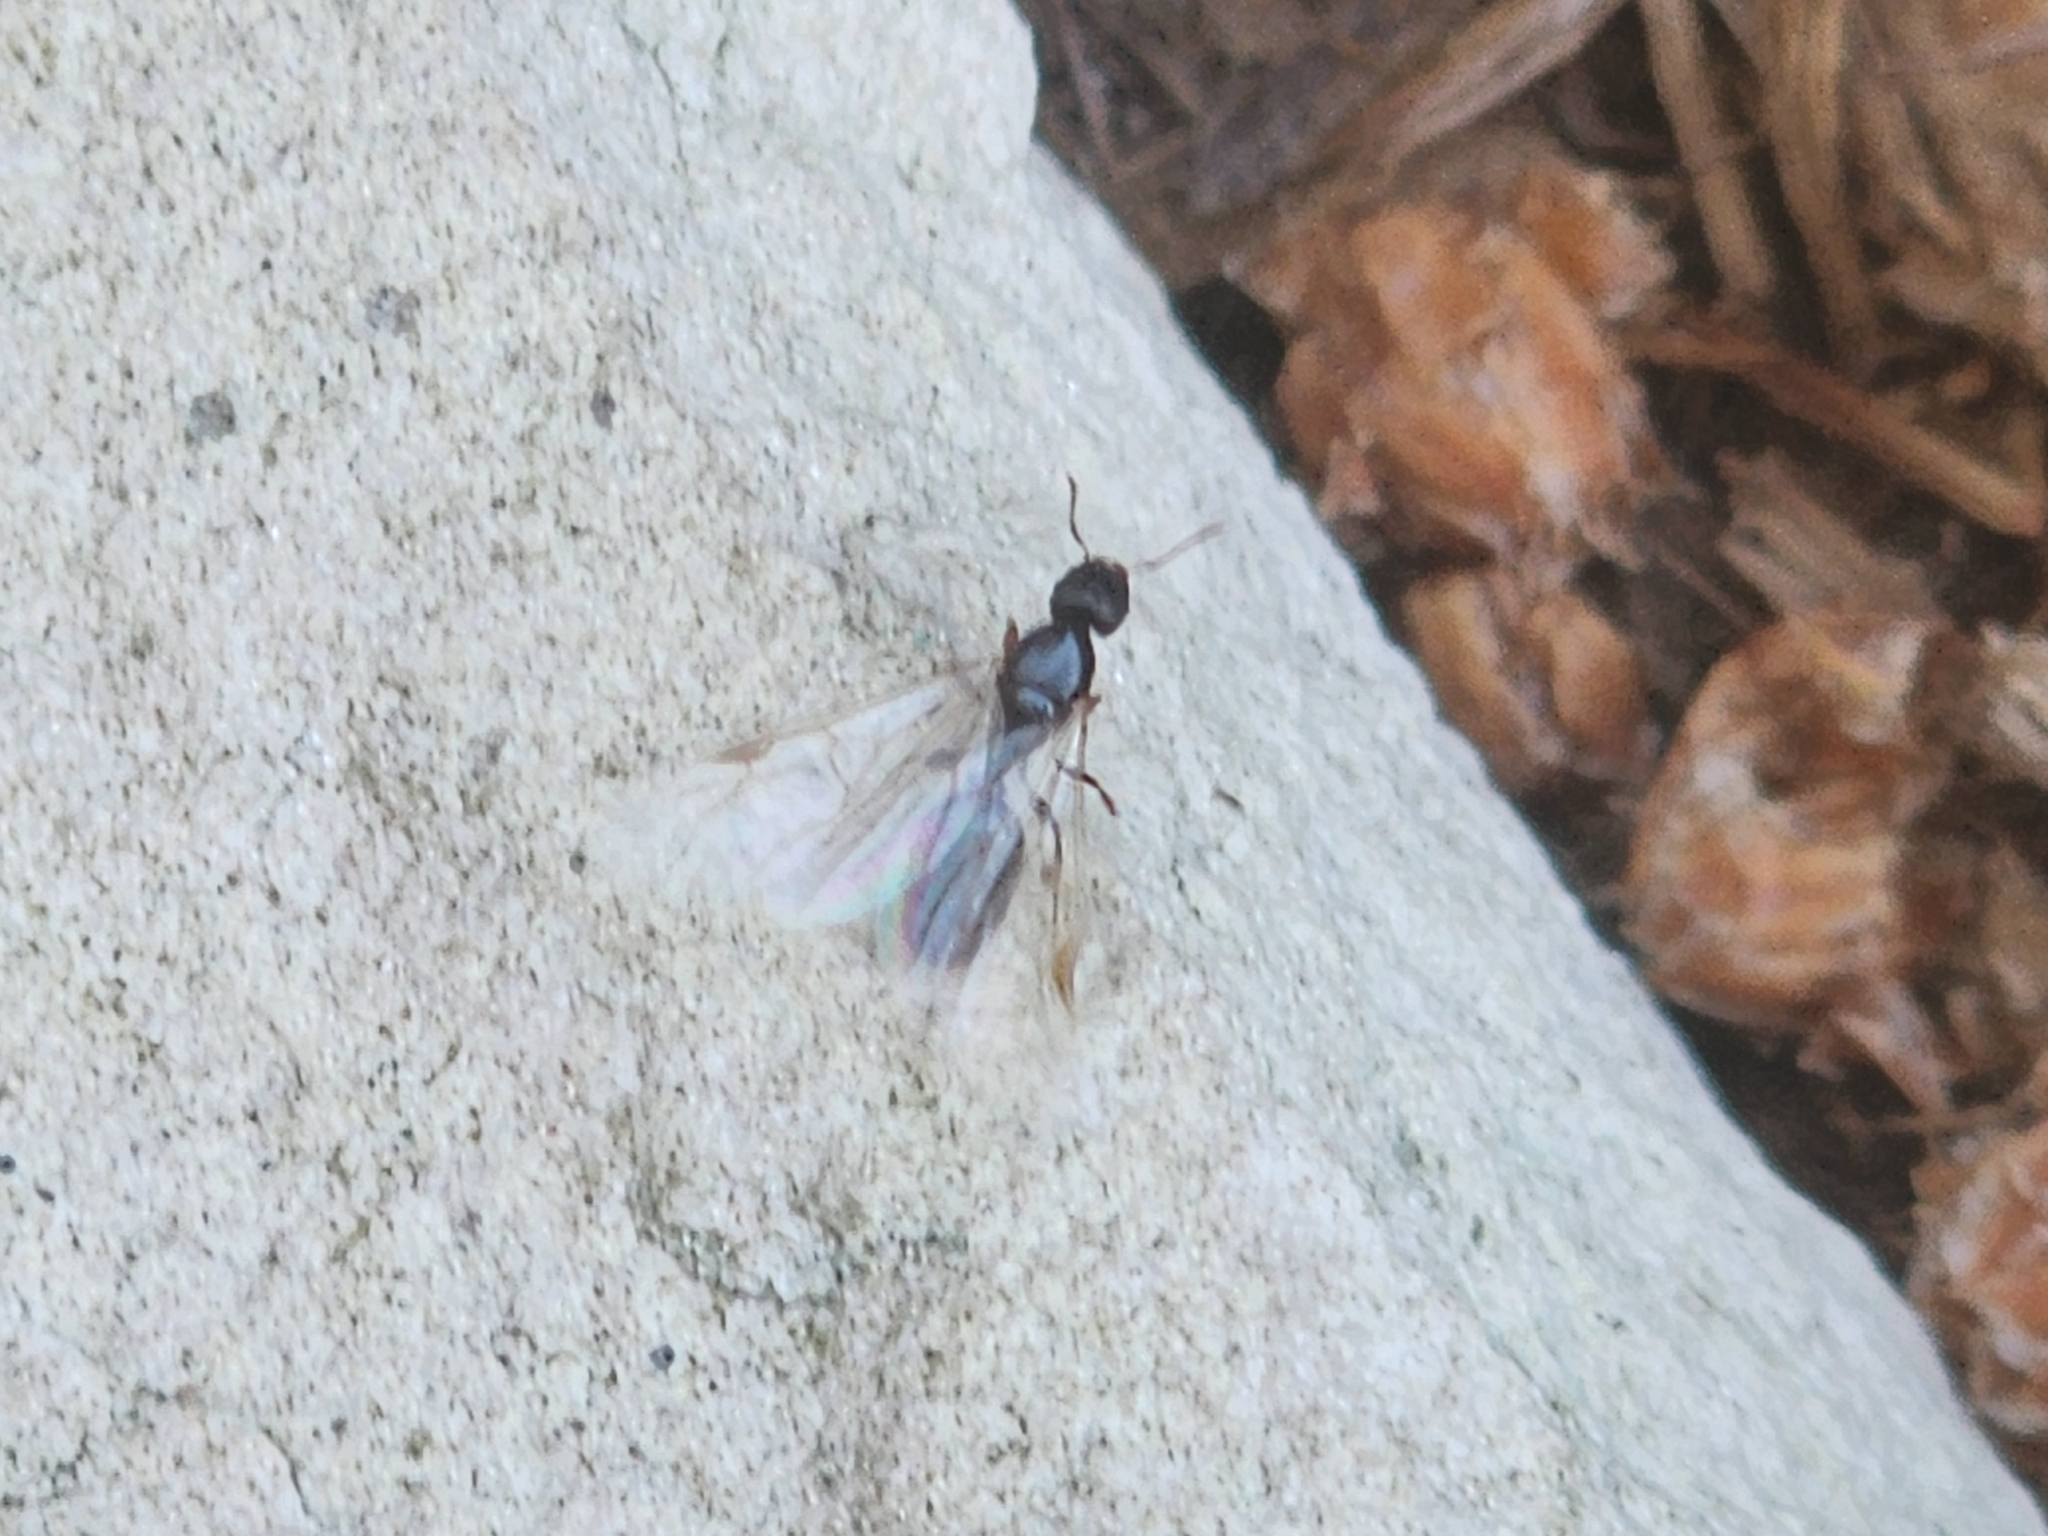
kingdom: Animalia
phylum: Arthropoda
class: Insecta
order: Hymenoptera
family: Formicidae
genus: Tetramorium
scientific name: Tetramorium immigrans
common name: Pavement ant
